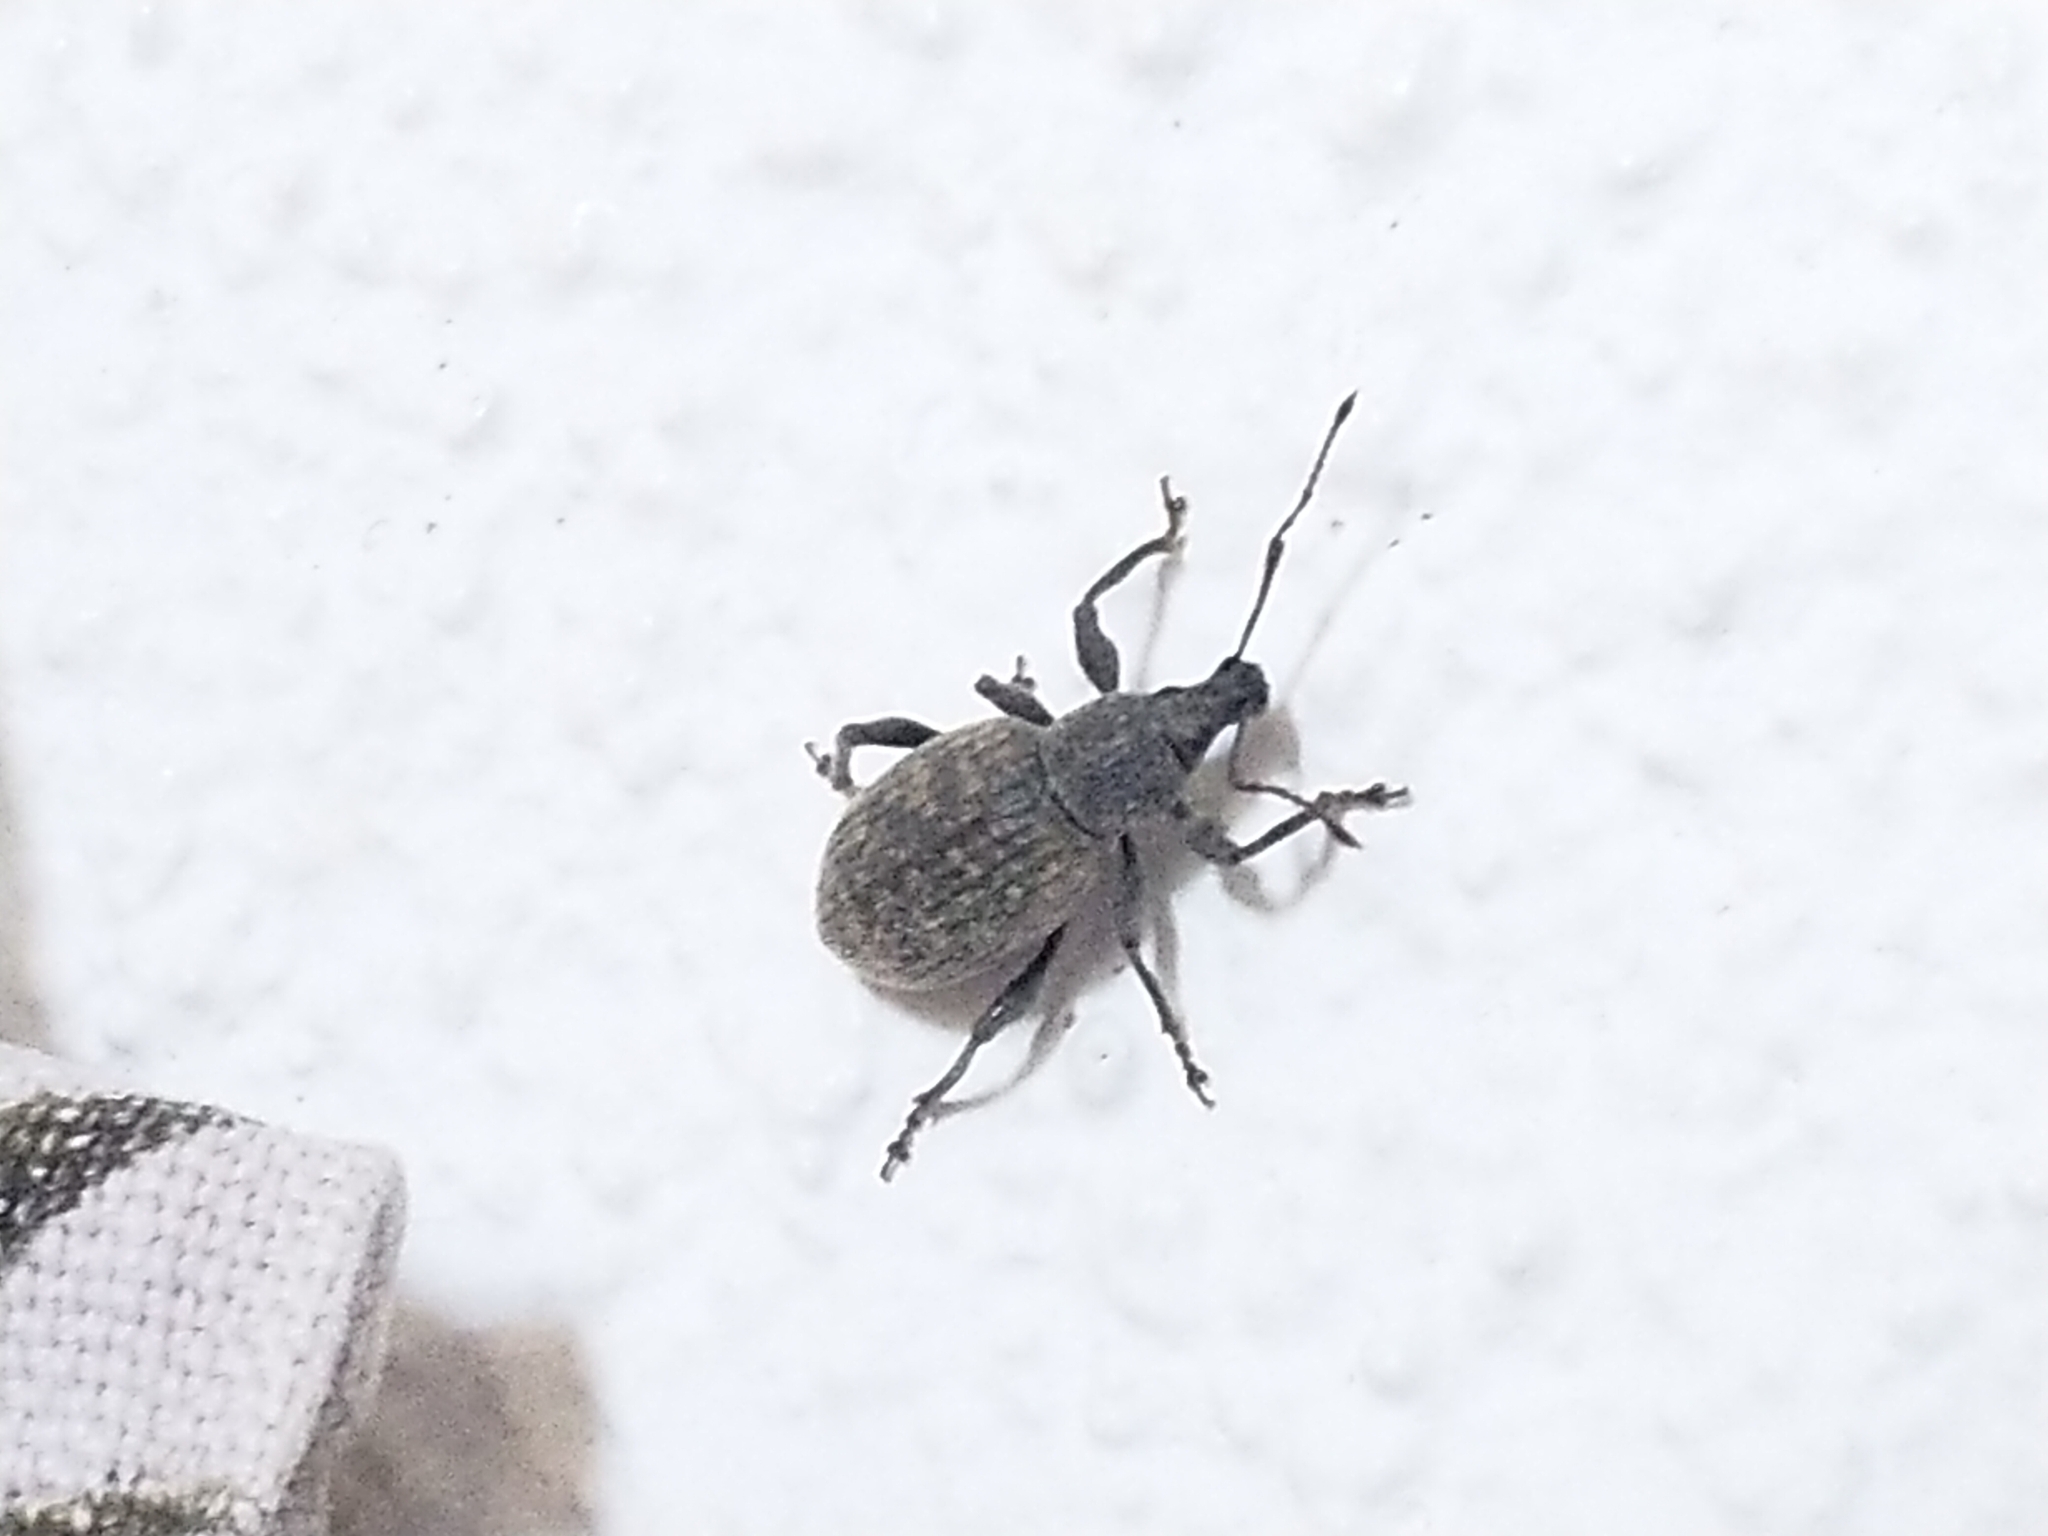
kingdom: Animalia
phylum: Arthropoda
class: Insecta
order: Coleoptera
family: Curculionidae
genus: Otiorhynchus
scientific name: Otiorhynchus sulcatus
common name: Black vine weevil
